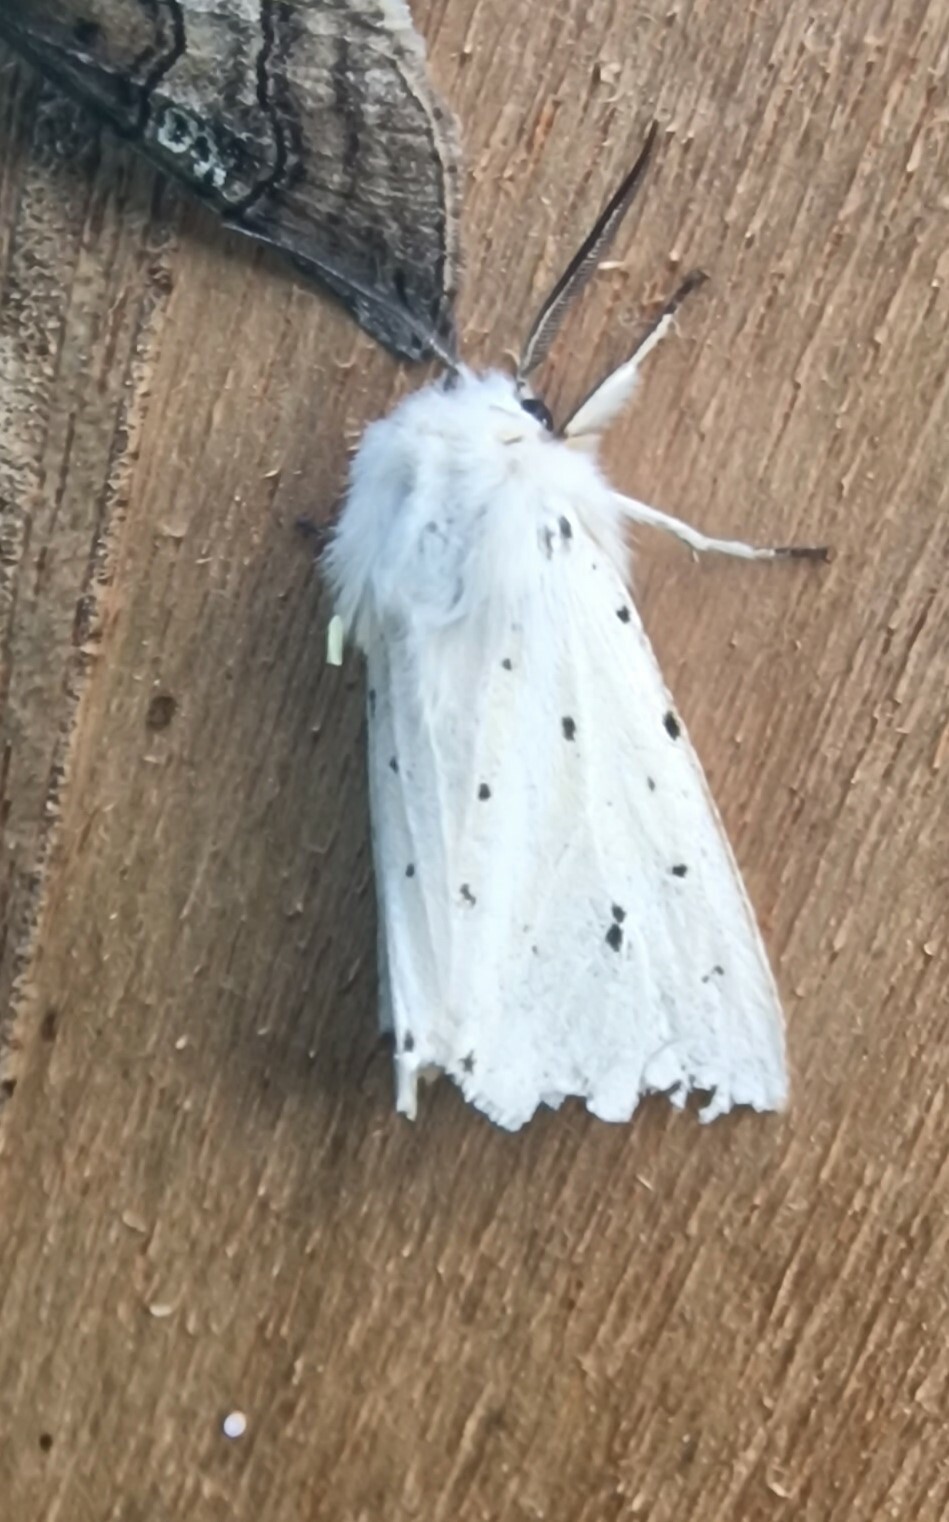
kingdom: Animalia
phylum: Arthropoda
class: Insecta
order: Lepidoptera
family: Erebidae
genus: Spilosoma
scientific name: Spilosoma lubricipeda
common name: White ermine
